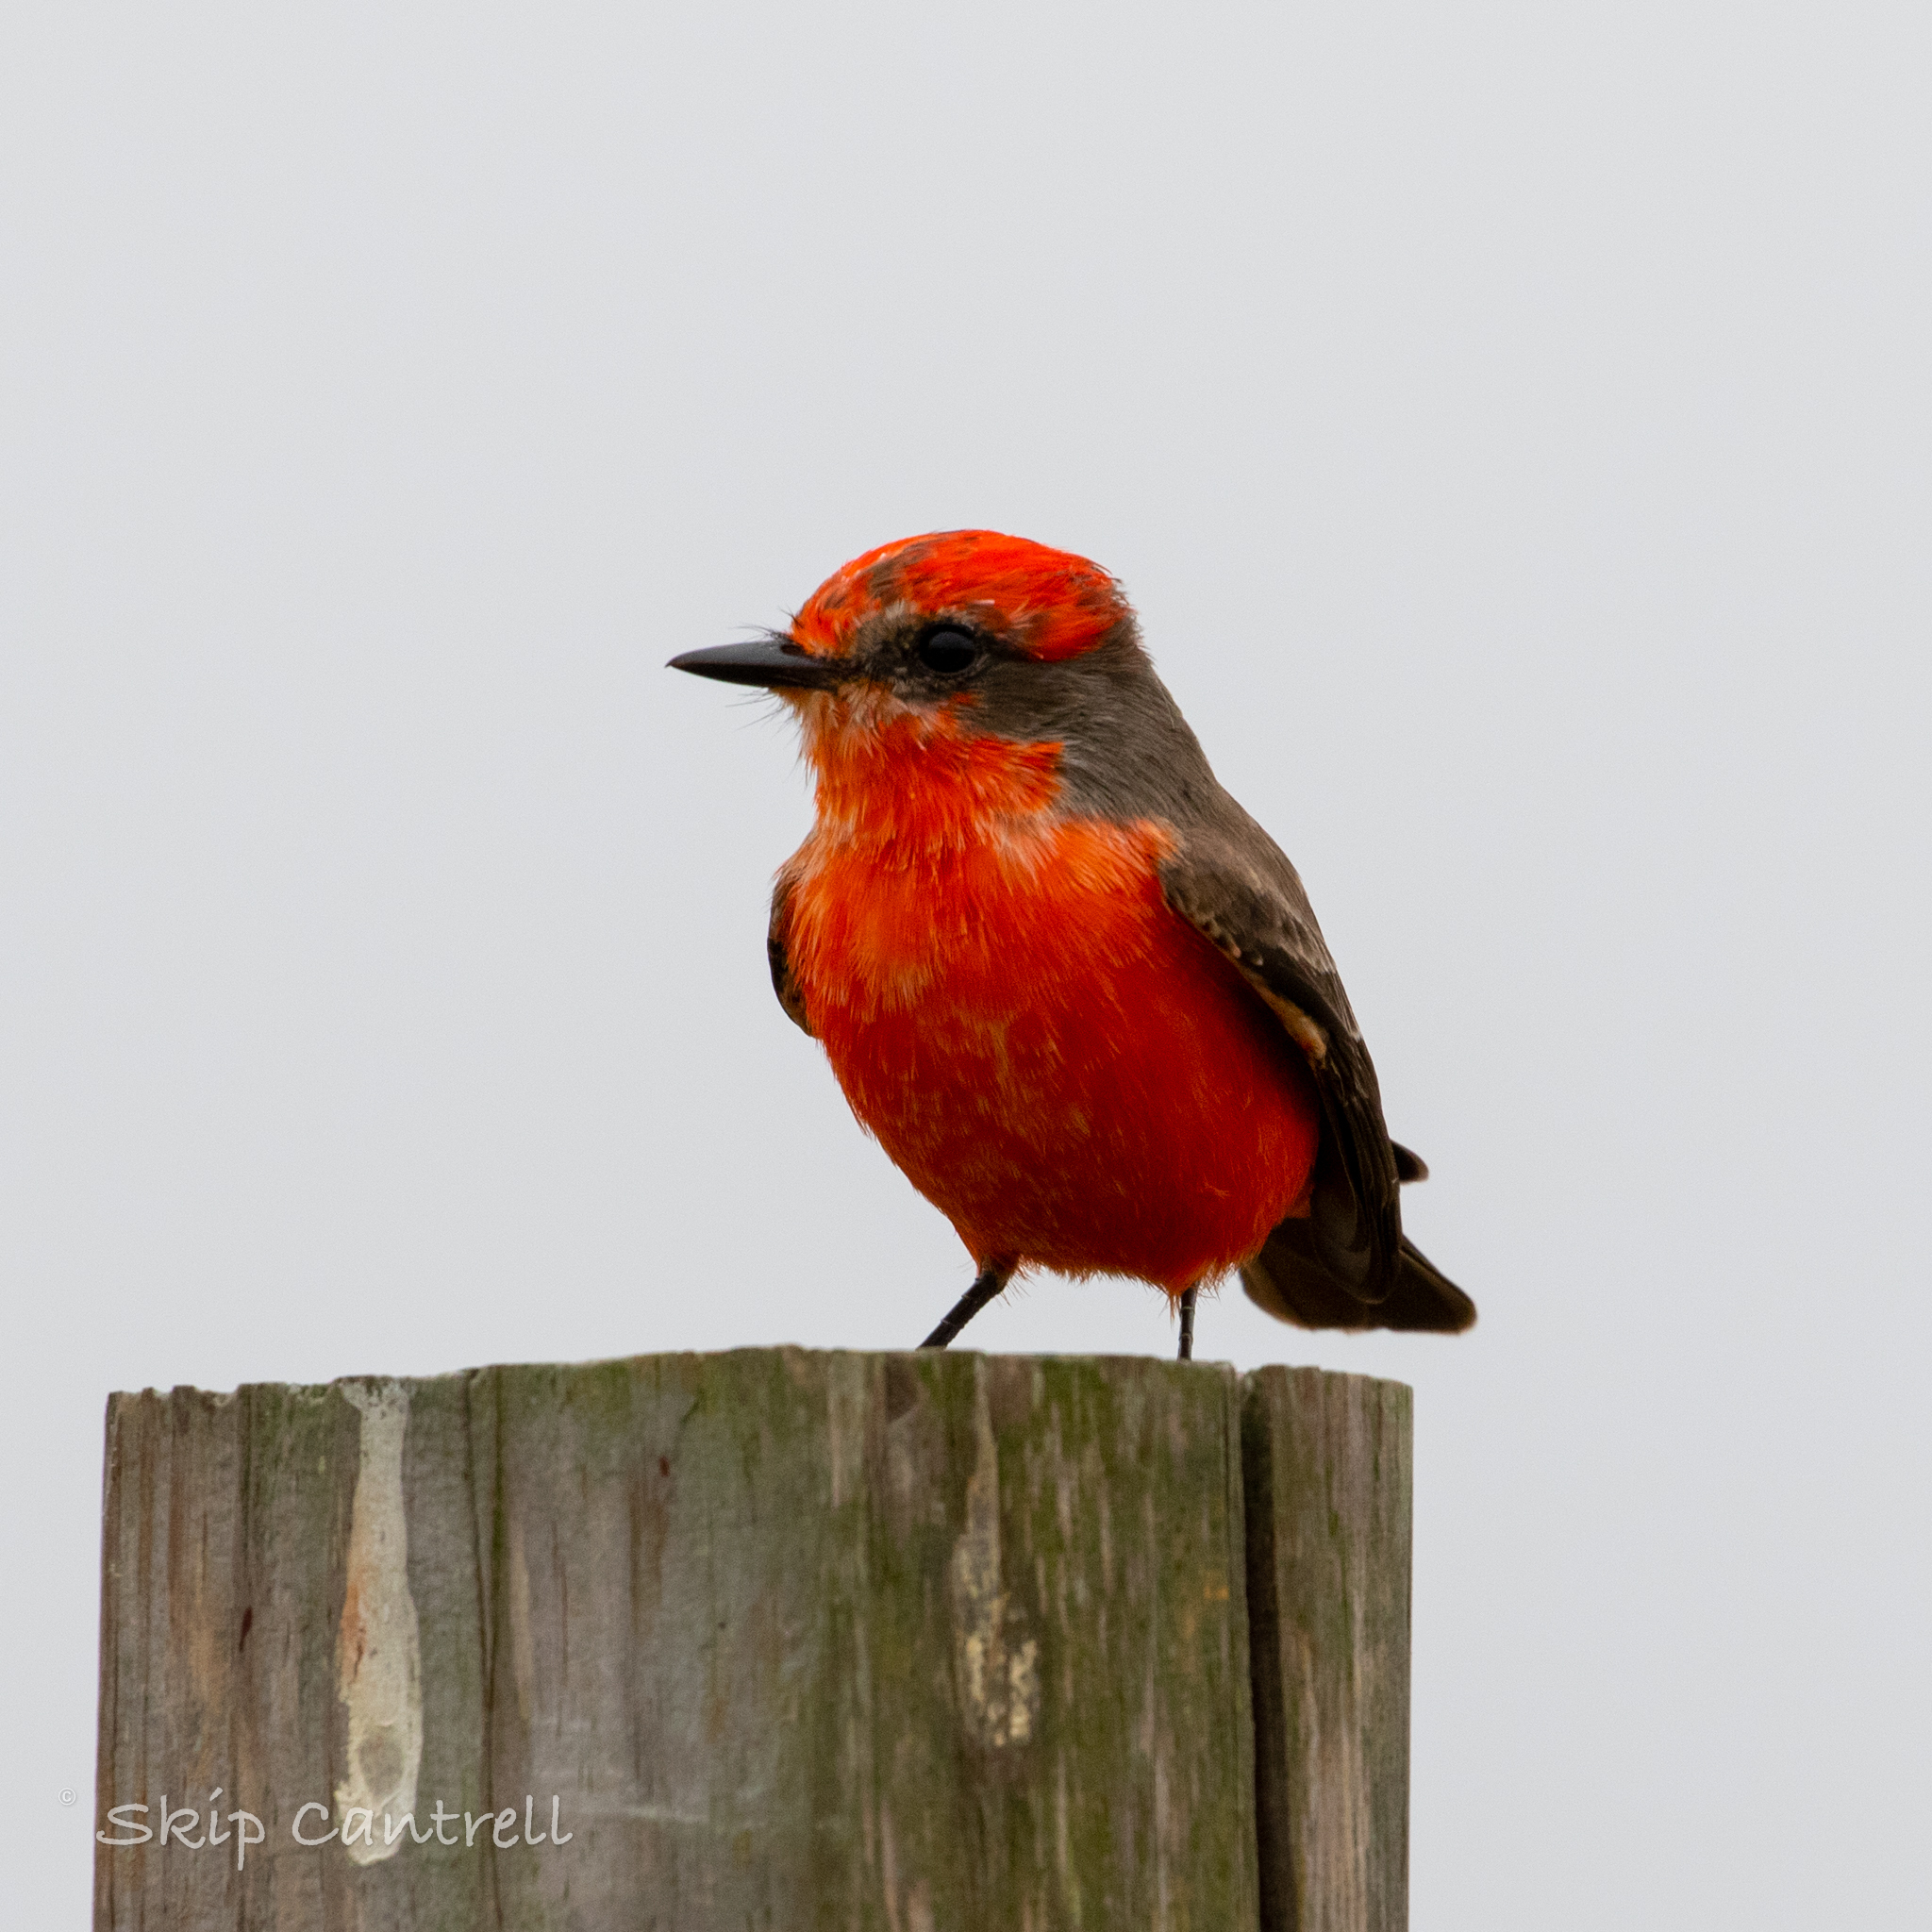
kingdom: Animalia
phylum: Chordata
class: Aves
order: Passeriformes
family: Tyrannidae
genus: Pyrocephalus
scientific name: Pyrocephalus rubinus
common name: Vermilion flycatcher
